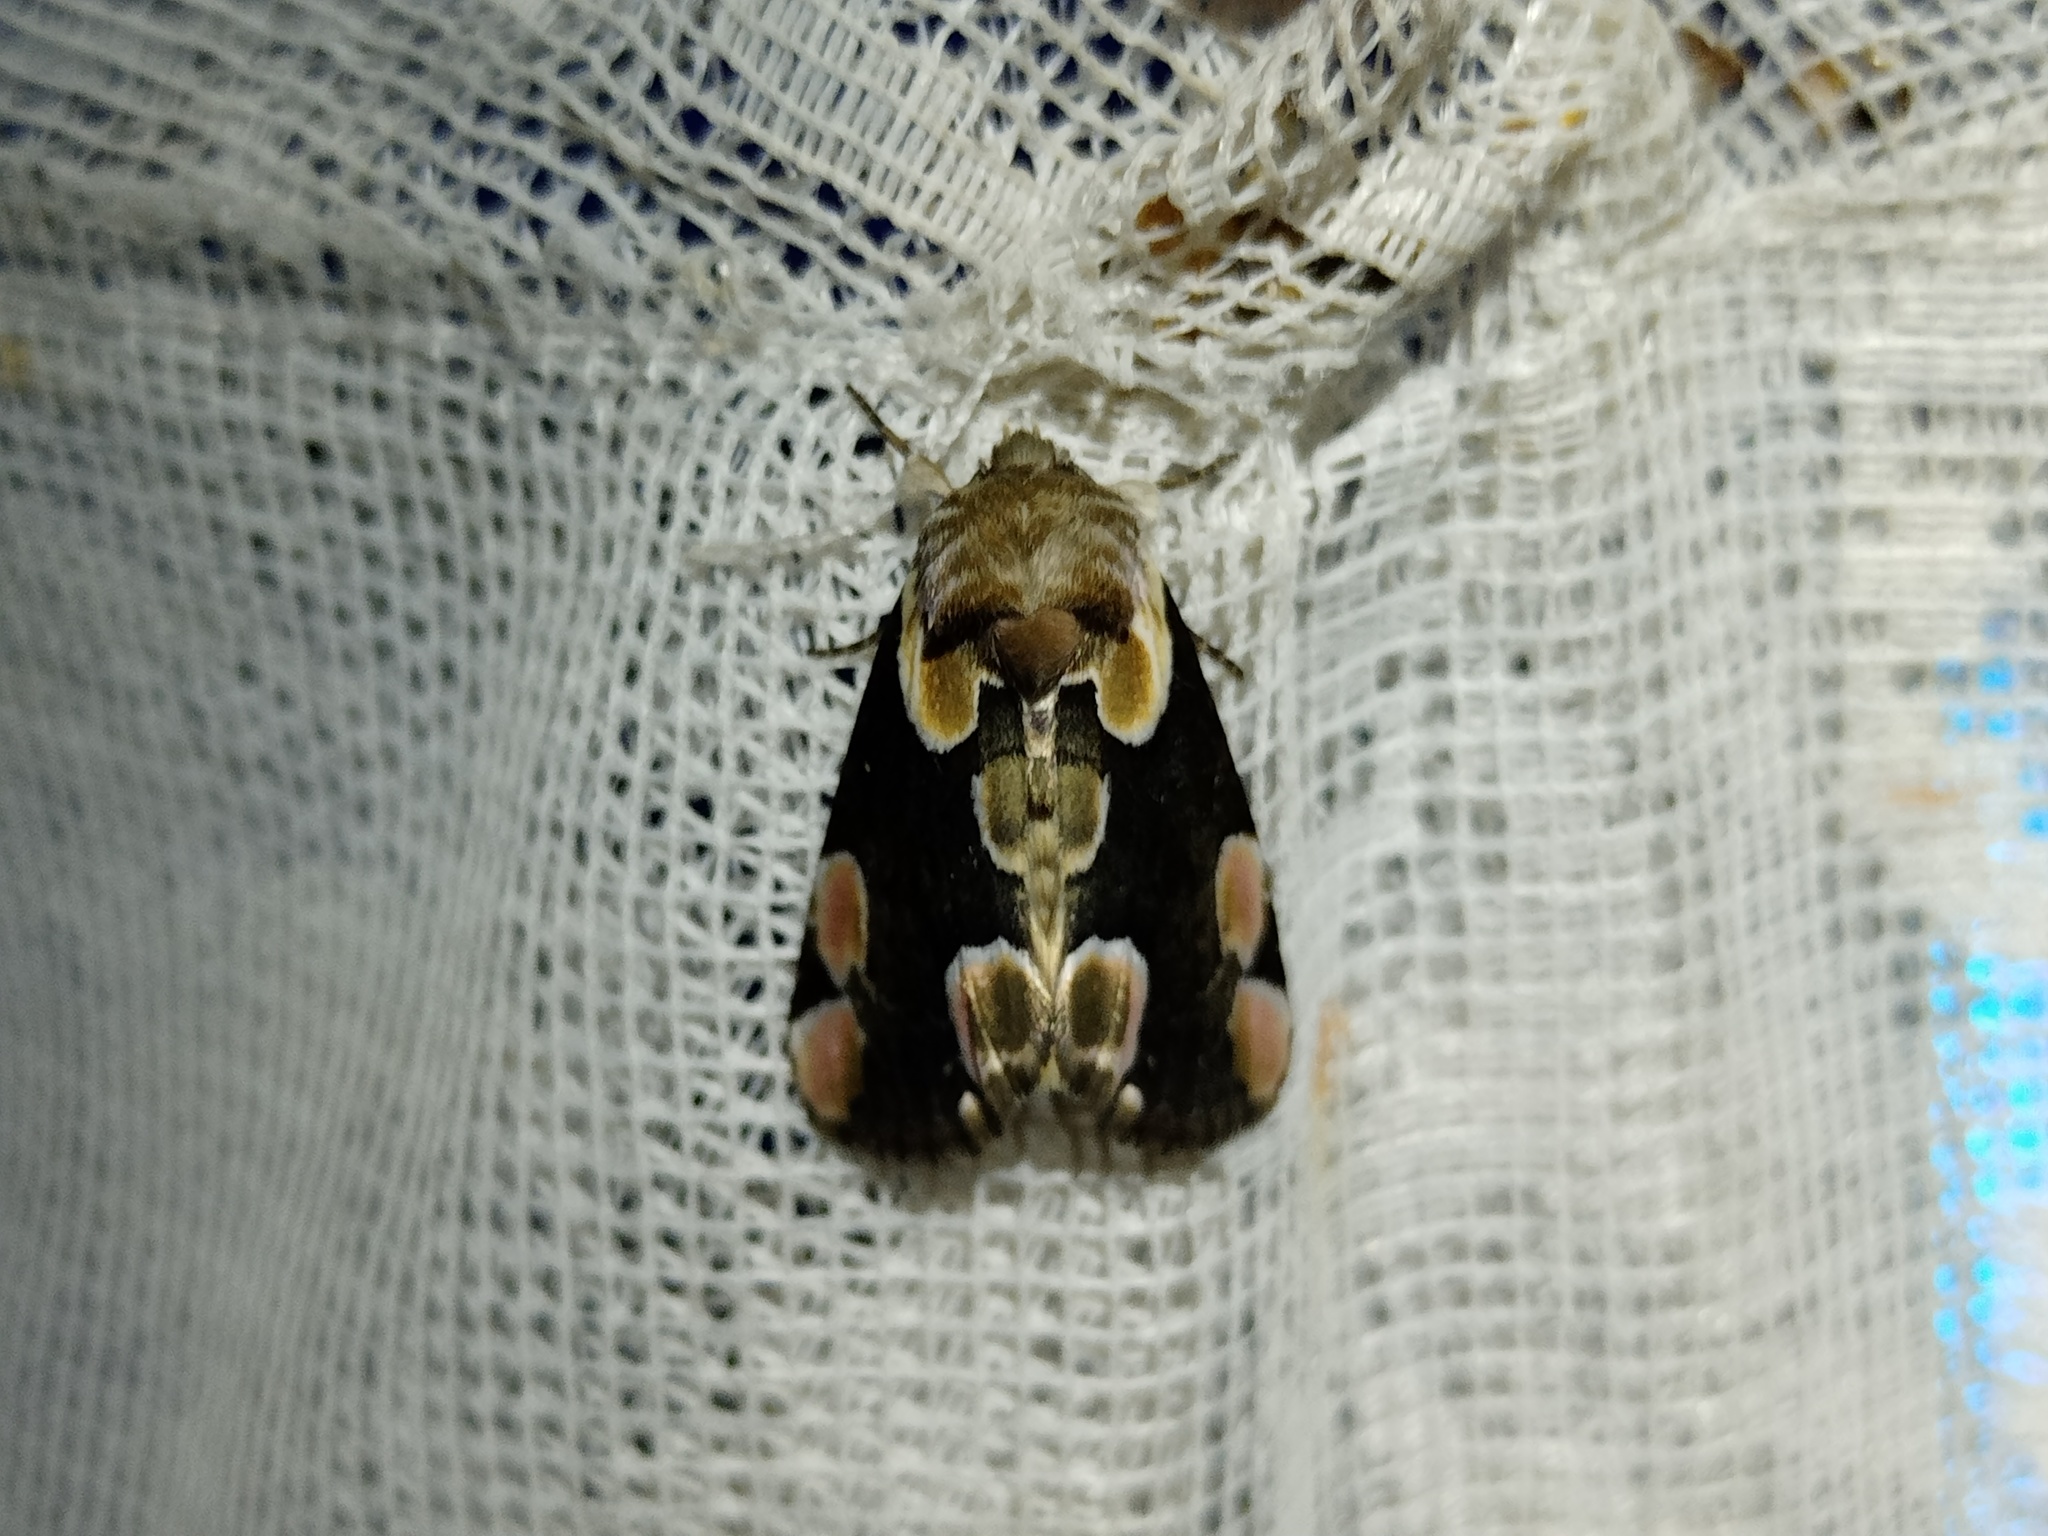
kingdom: Animalia
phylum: Arthropoda
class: Insecta
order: Lepidoptera
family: Drepanidae
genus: Thyatira
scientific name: Thyatira batis
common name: Peach blossom
